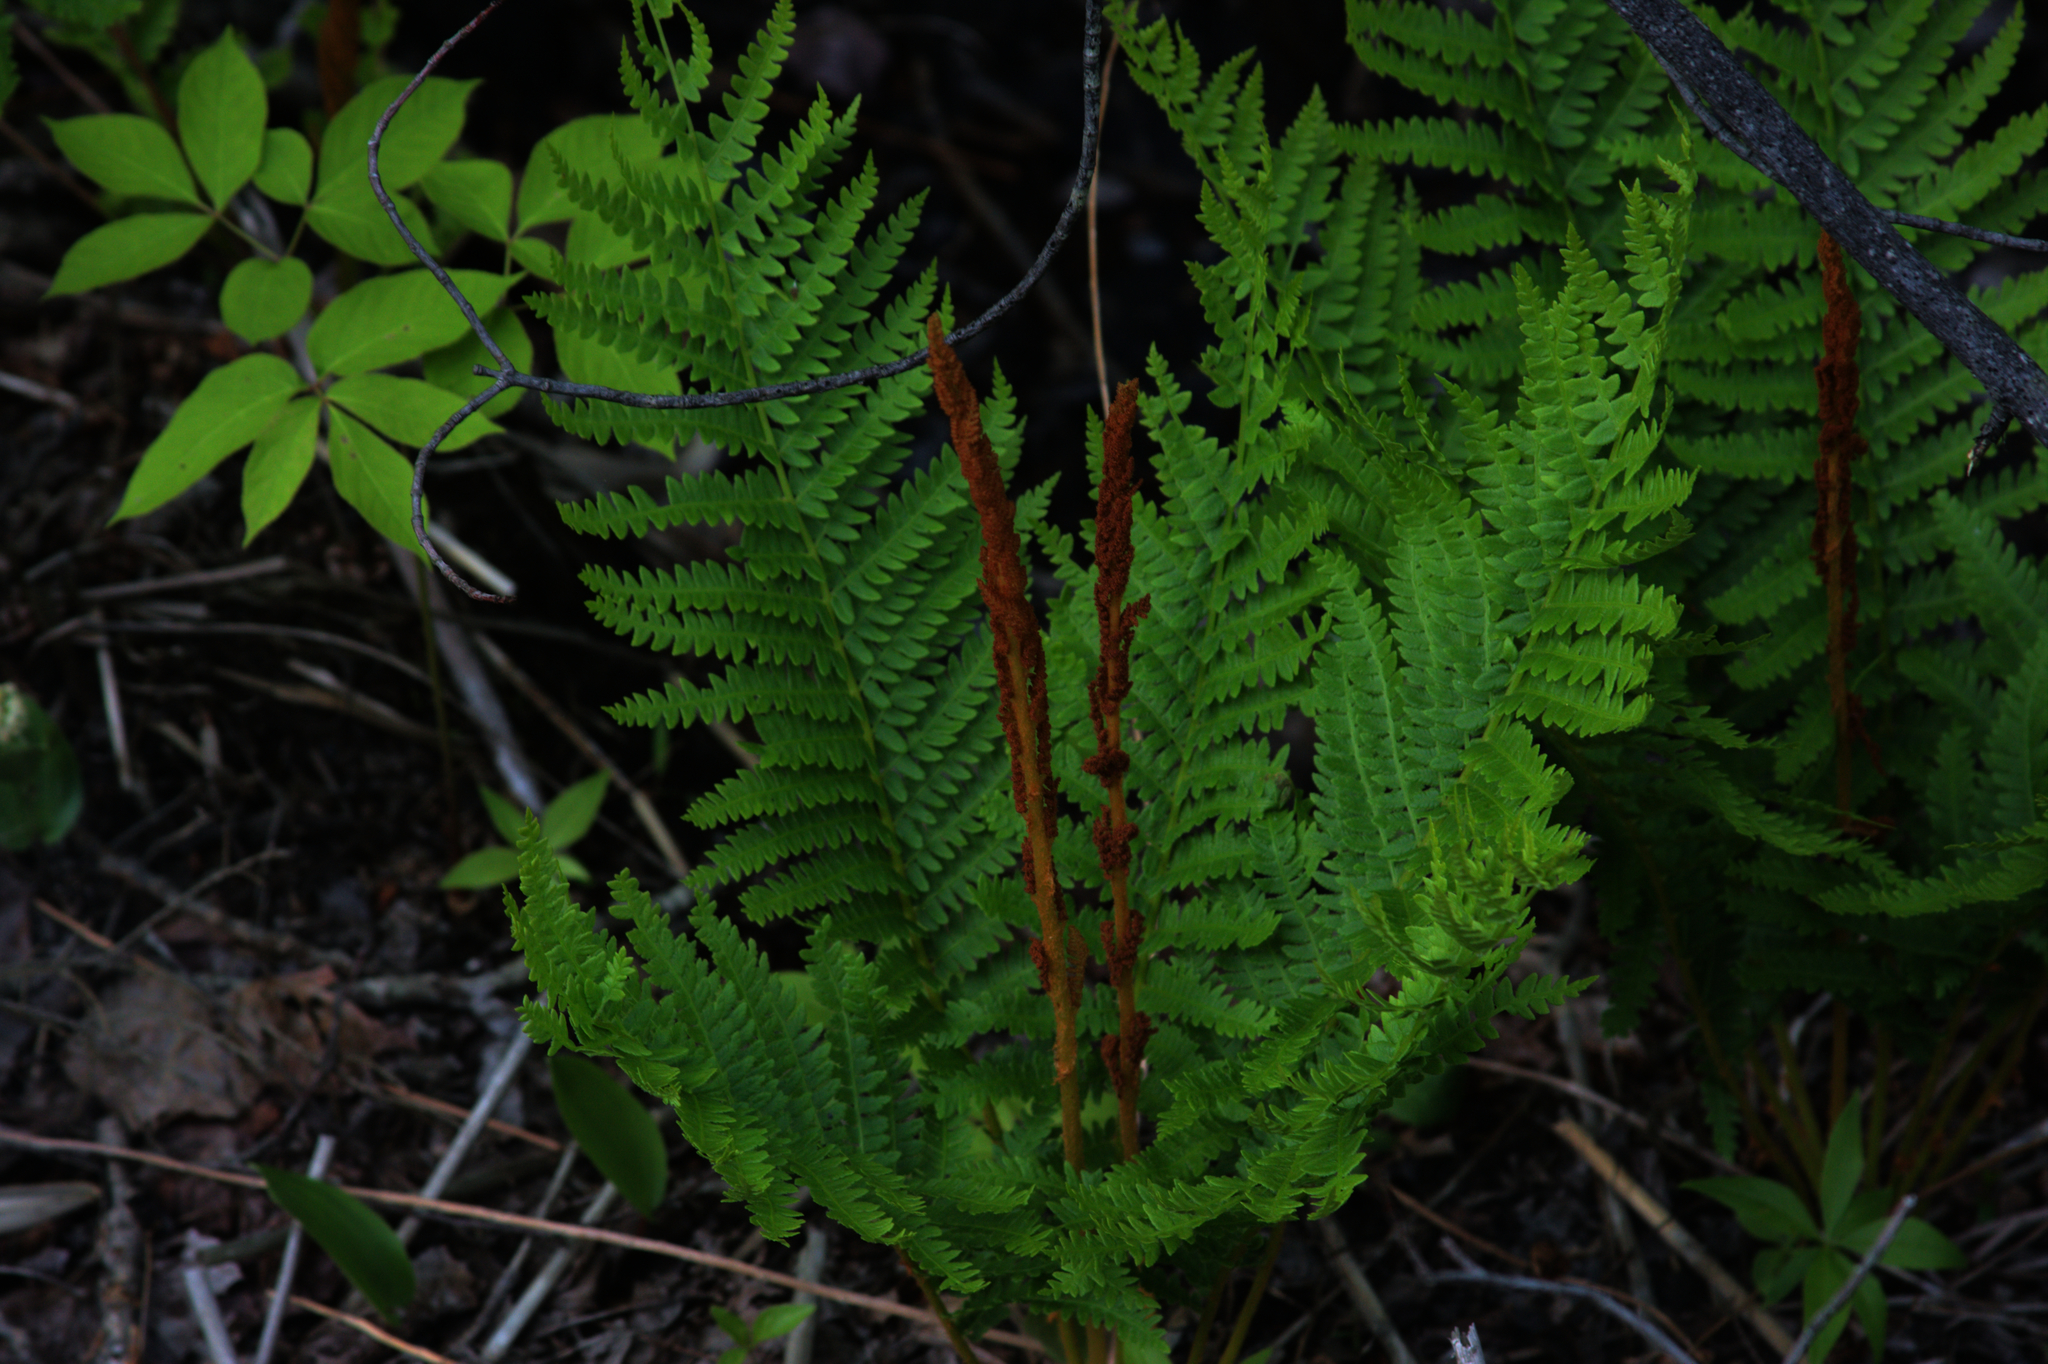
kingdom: Plantae
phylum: Tracheophyta
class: Polypodiopsida
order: Osmundales
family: Osmundaceae
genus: Osmundastrum
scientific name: Osmundastrum cinnamomeum
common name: Cinnamon fern
